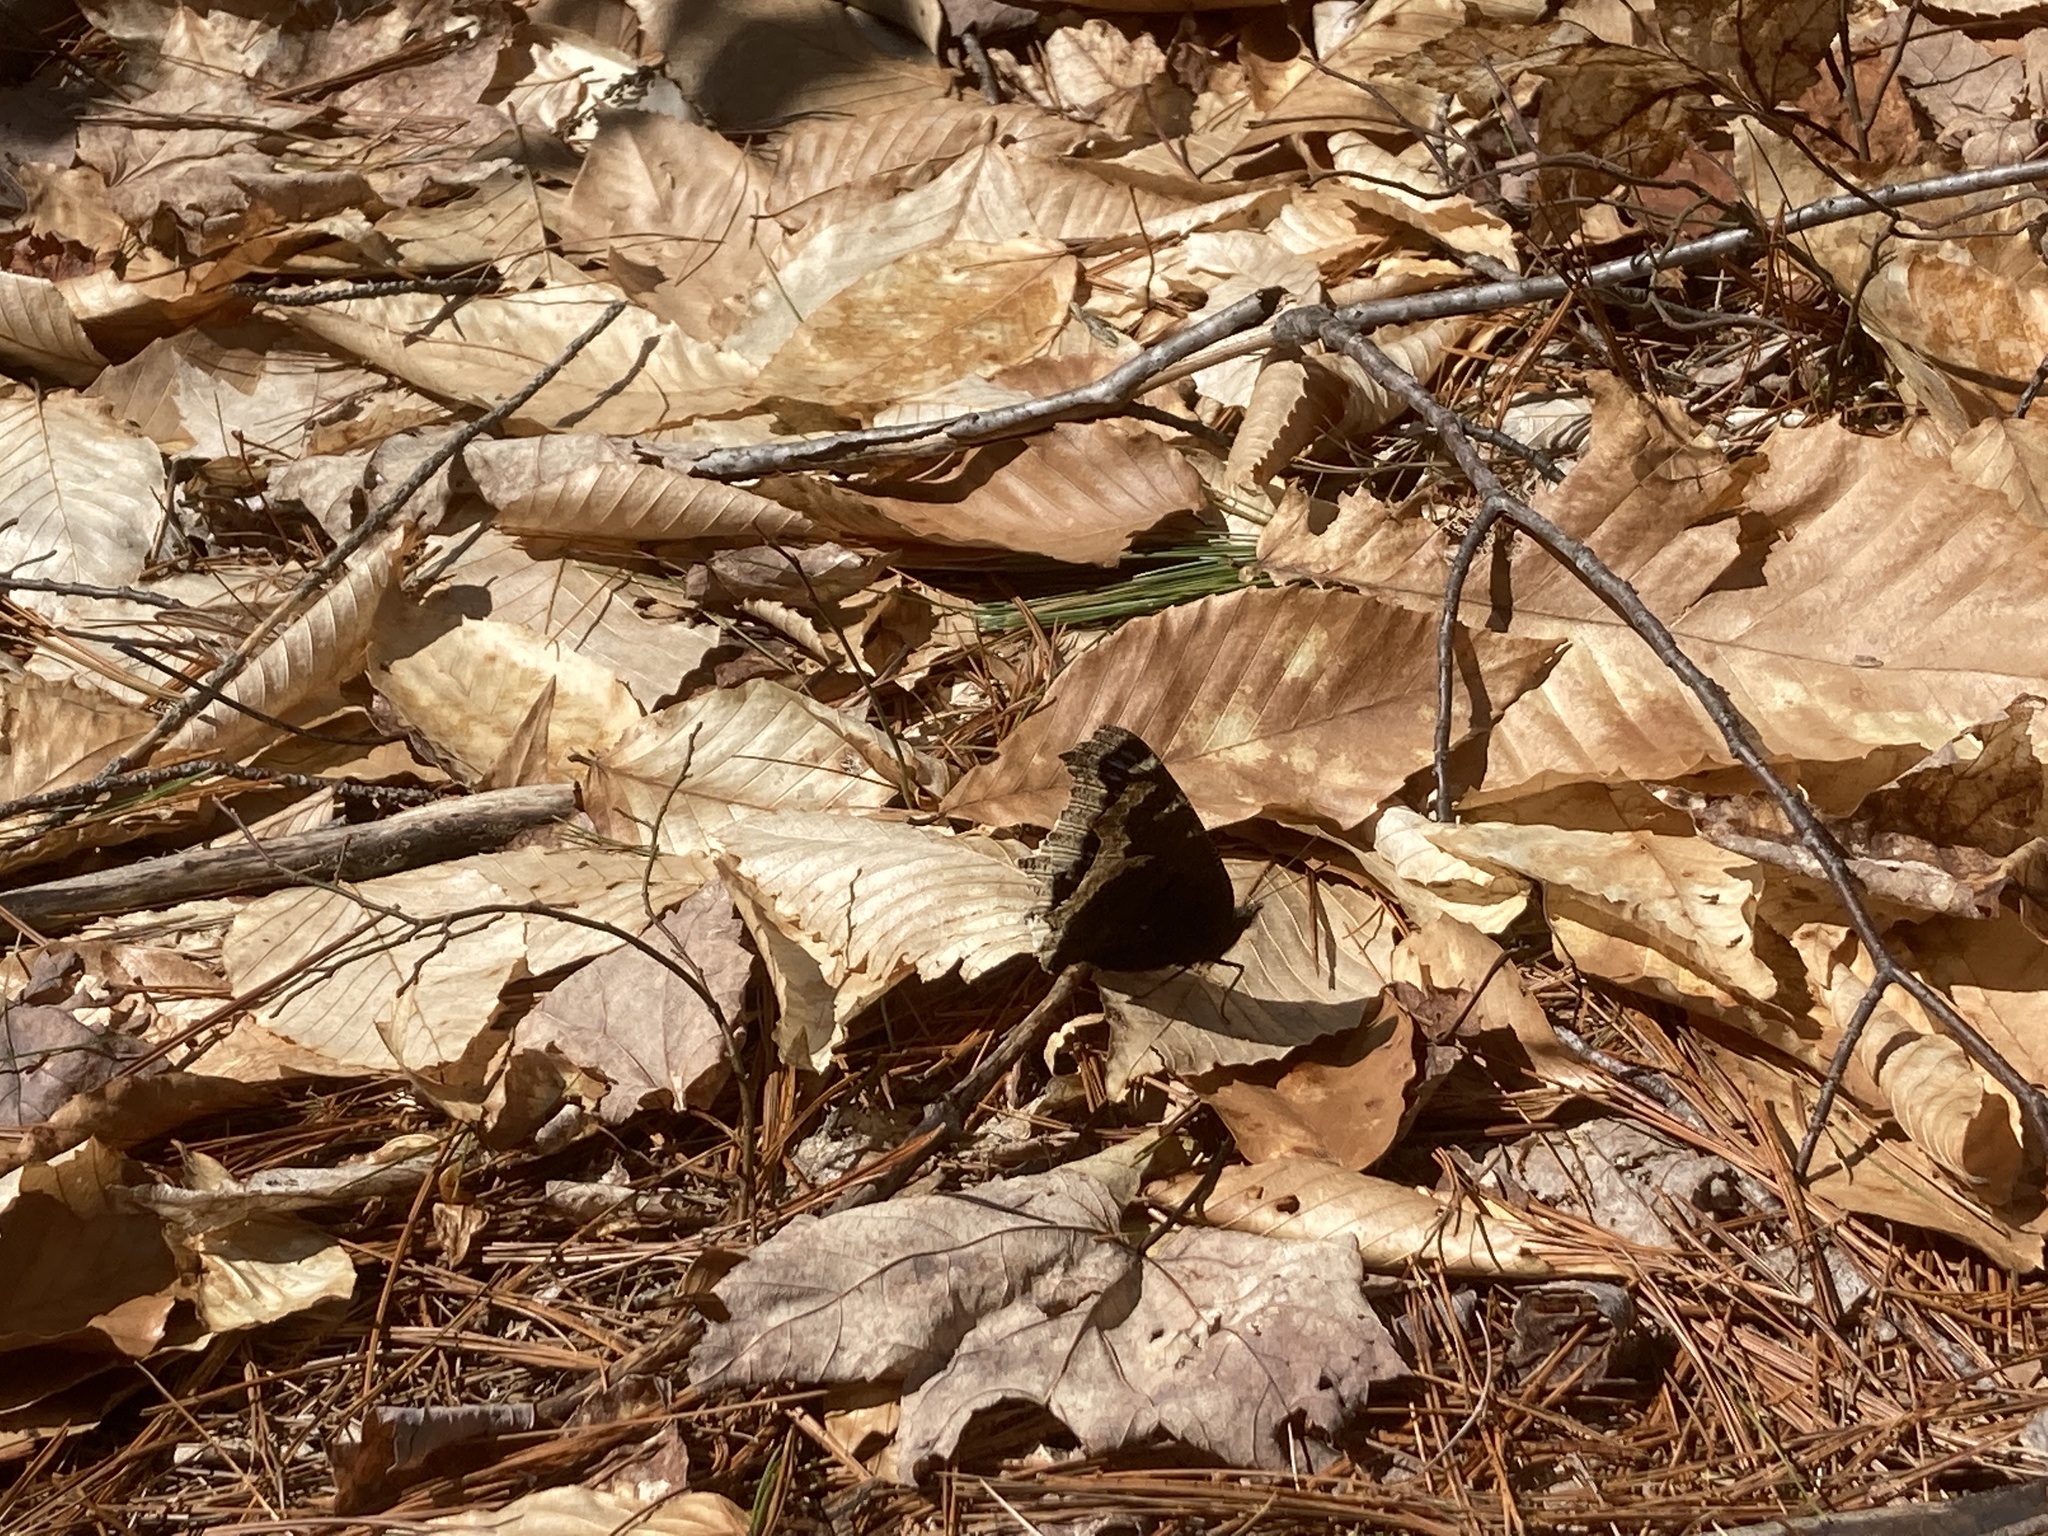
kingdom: Animalia
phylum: Arthropoda
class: Insecta
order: Lepidoptera
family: Nymphalidae
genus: Nymphalis
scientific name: Nymphalis antiopa
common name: Camberwell beauty
